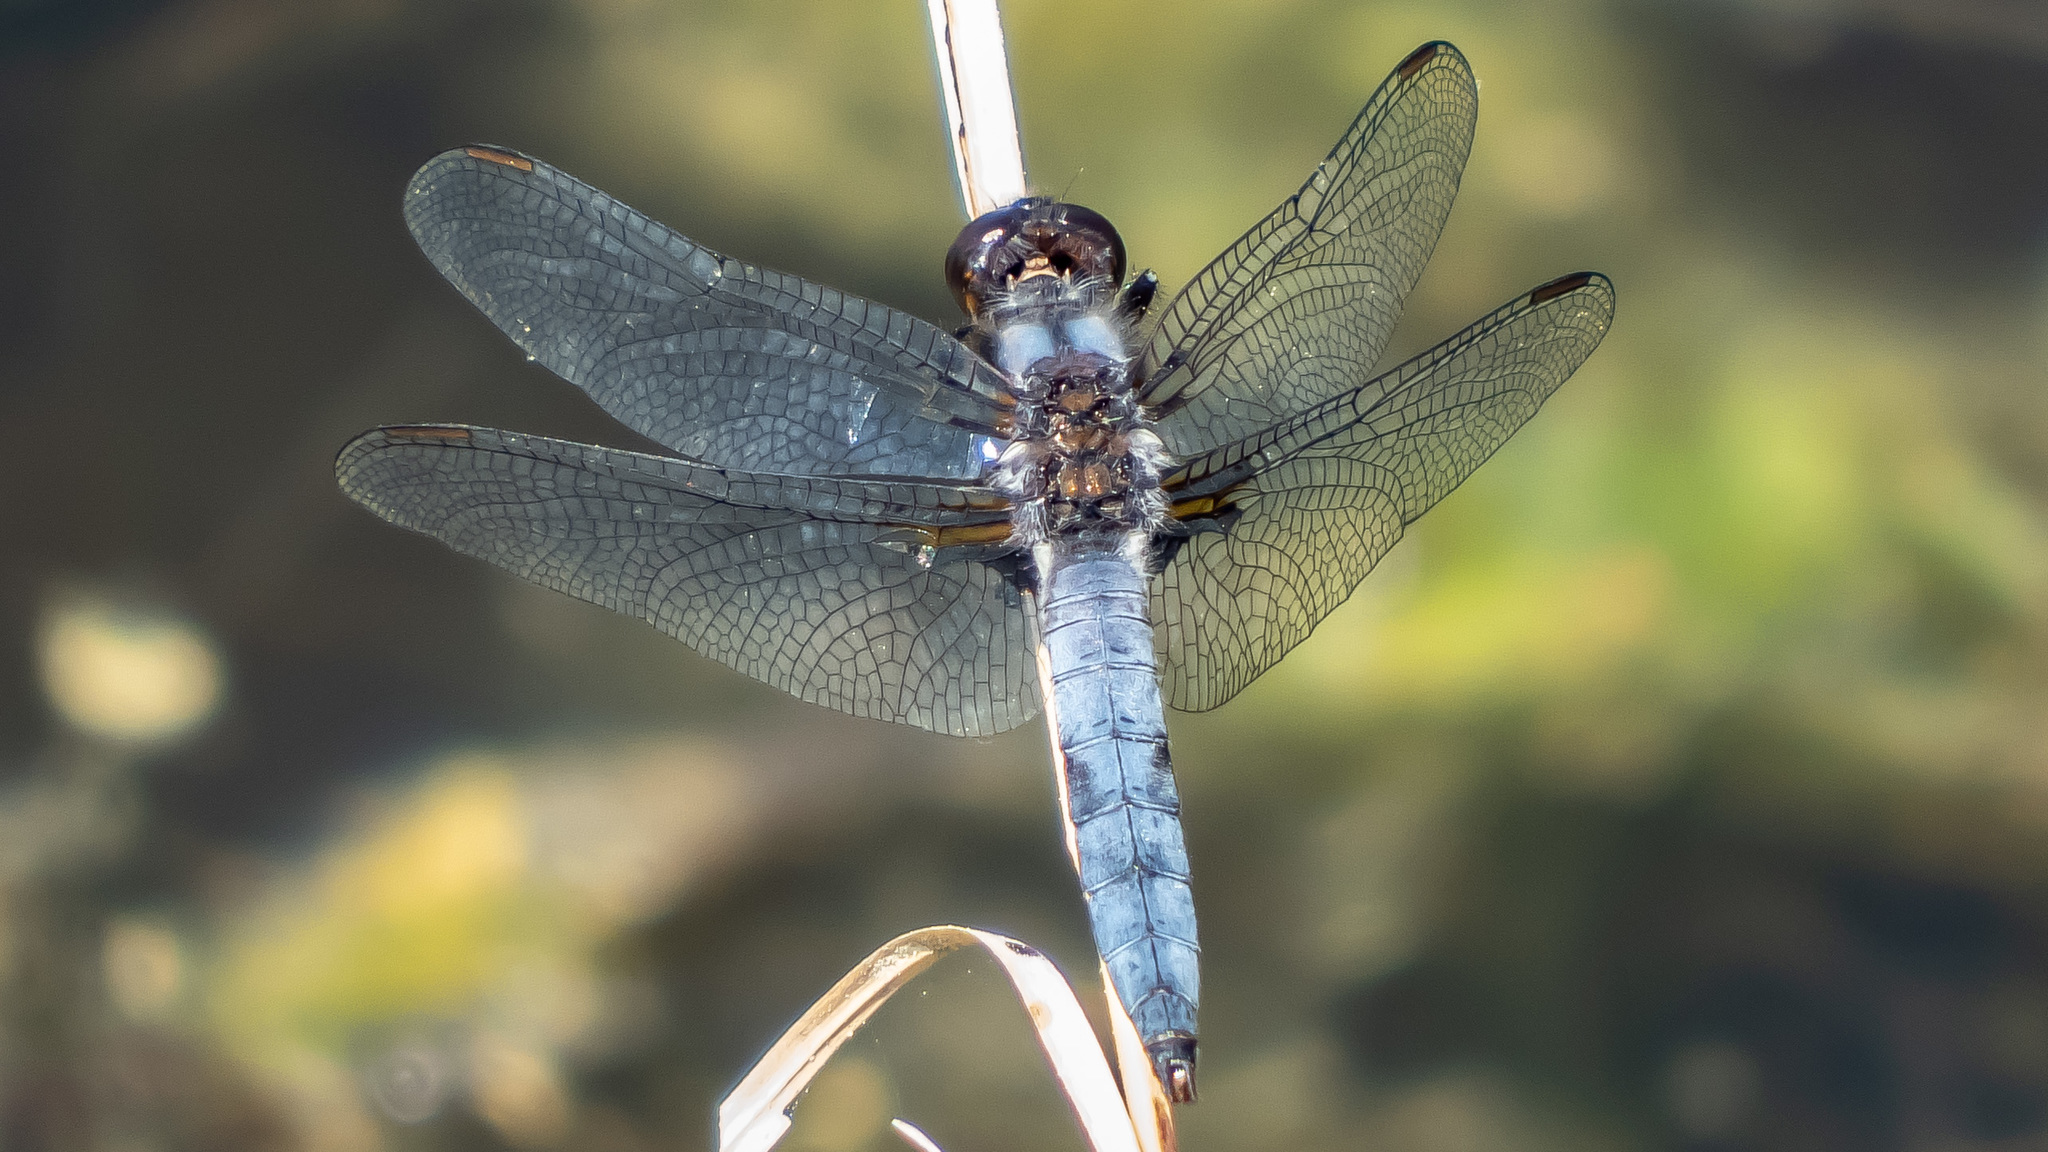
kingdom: Animalia
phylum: Arthropoda
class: Insecta
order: Odonata
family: Libellulidae
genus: Ladona
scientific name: Ladona deplanata
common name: Blue corporal
